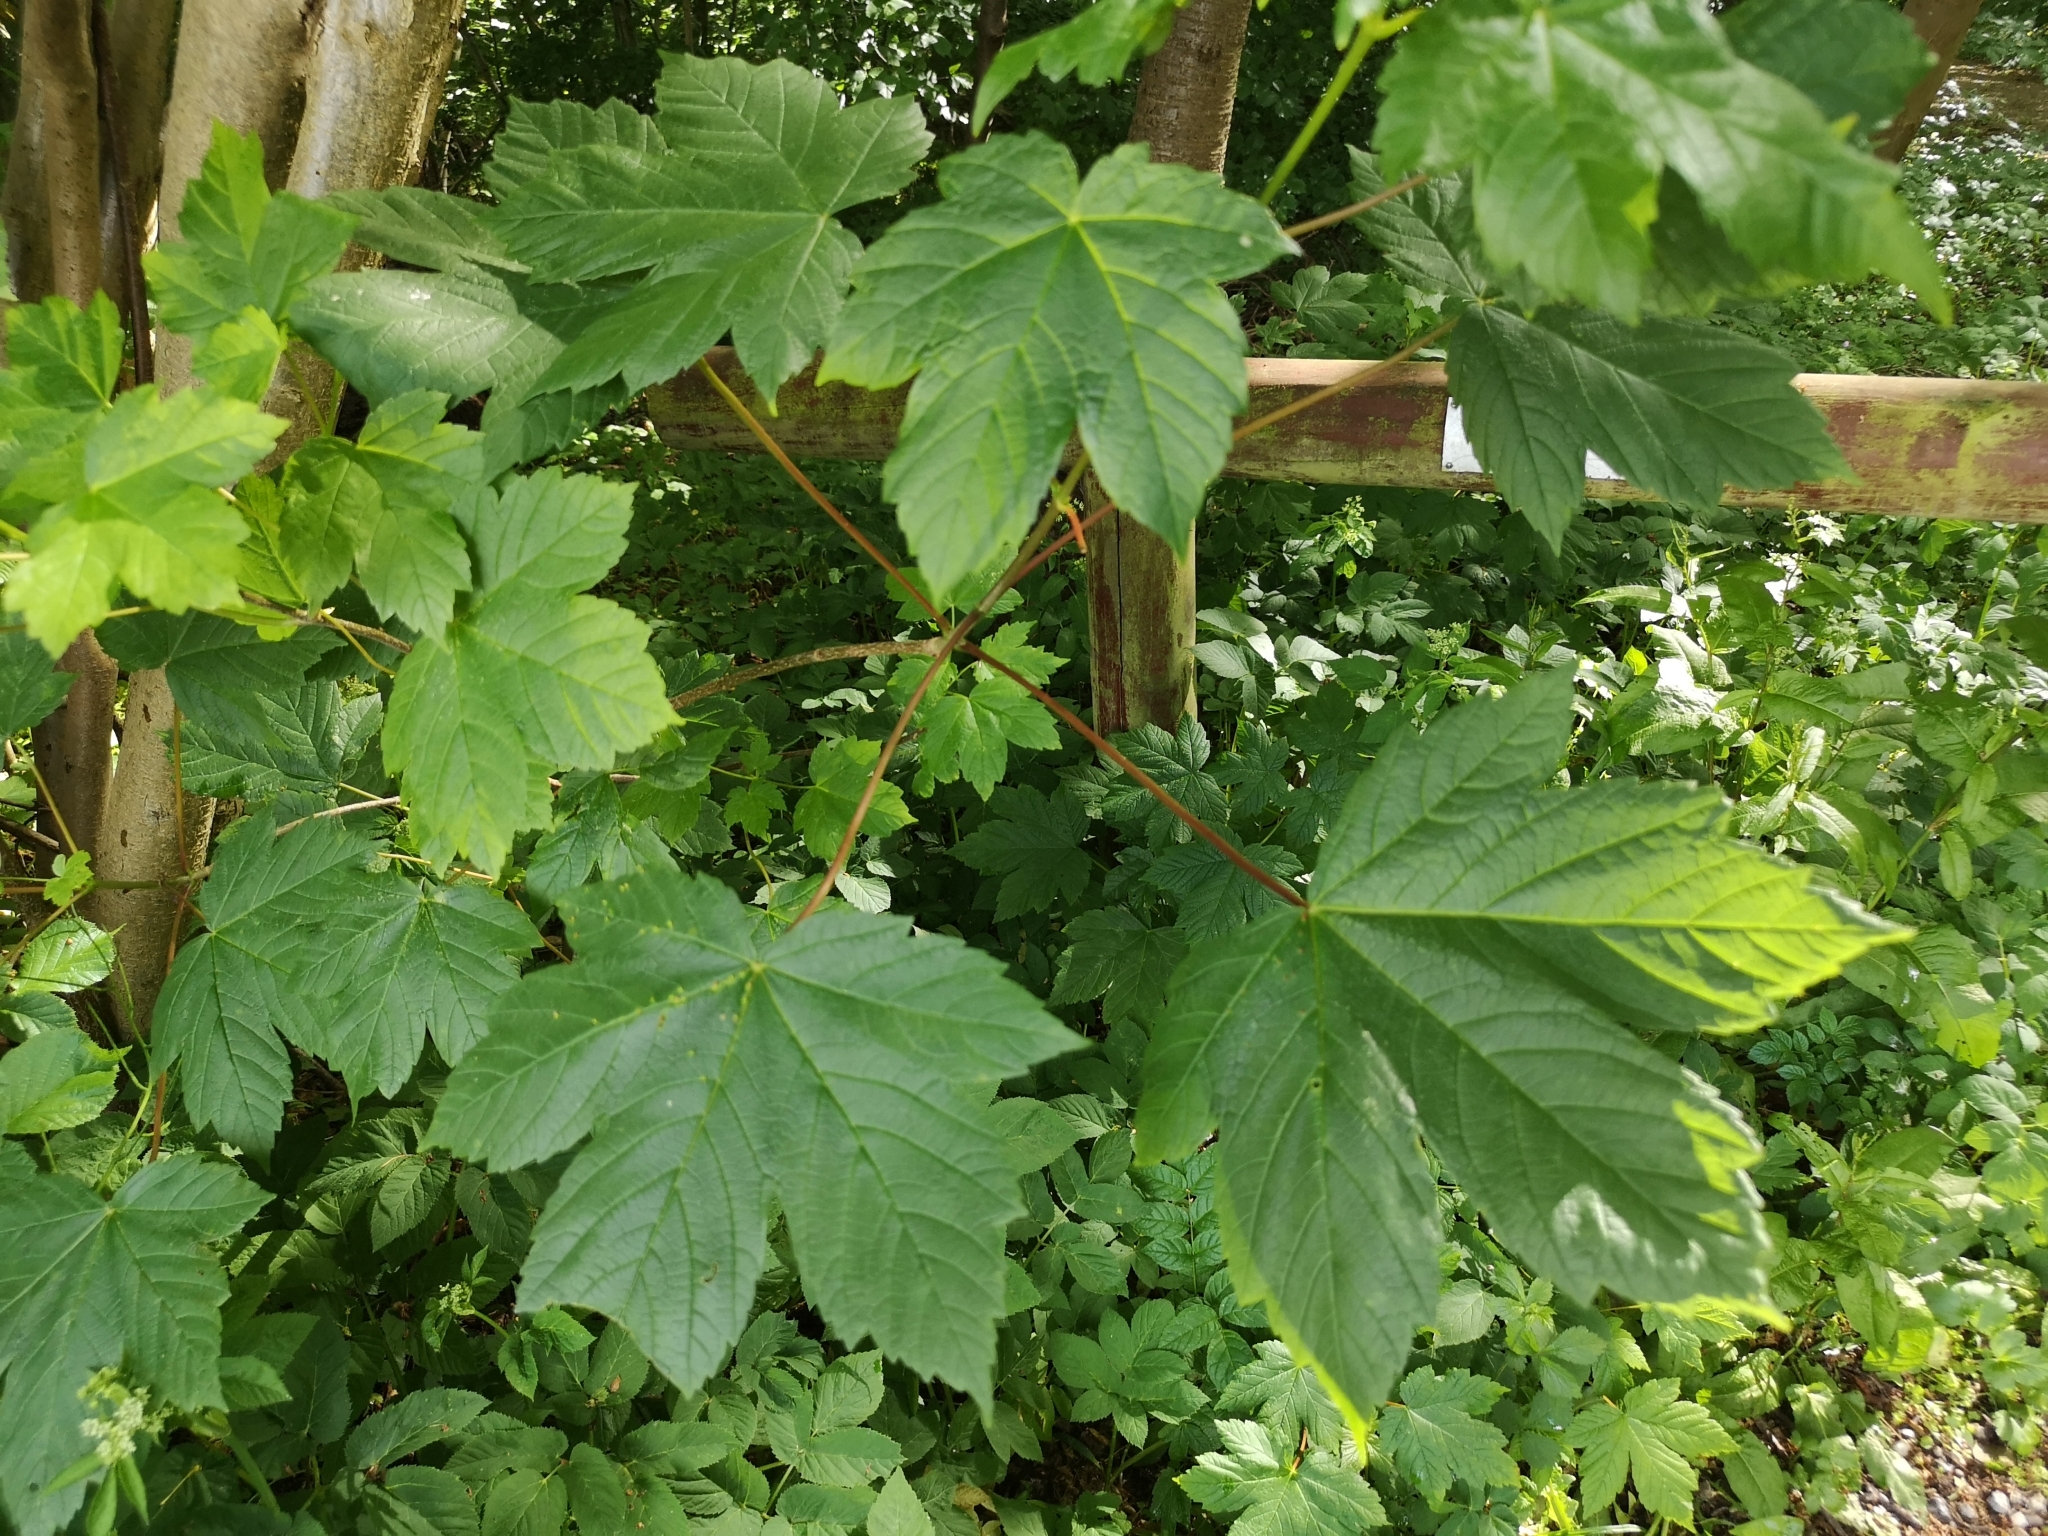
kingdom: Plantae
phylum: Tracheophyta
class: Magnoliopsida
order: Sapindales
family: Sapindaceae
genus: Acer
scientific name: Acer pseudoplatanus
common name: Sycamore
